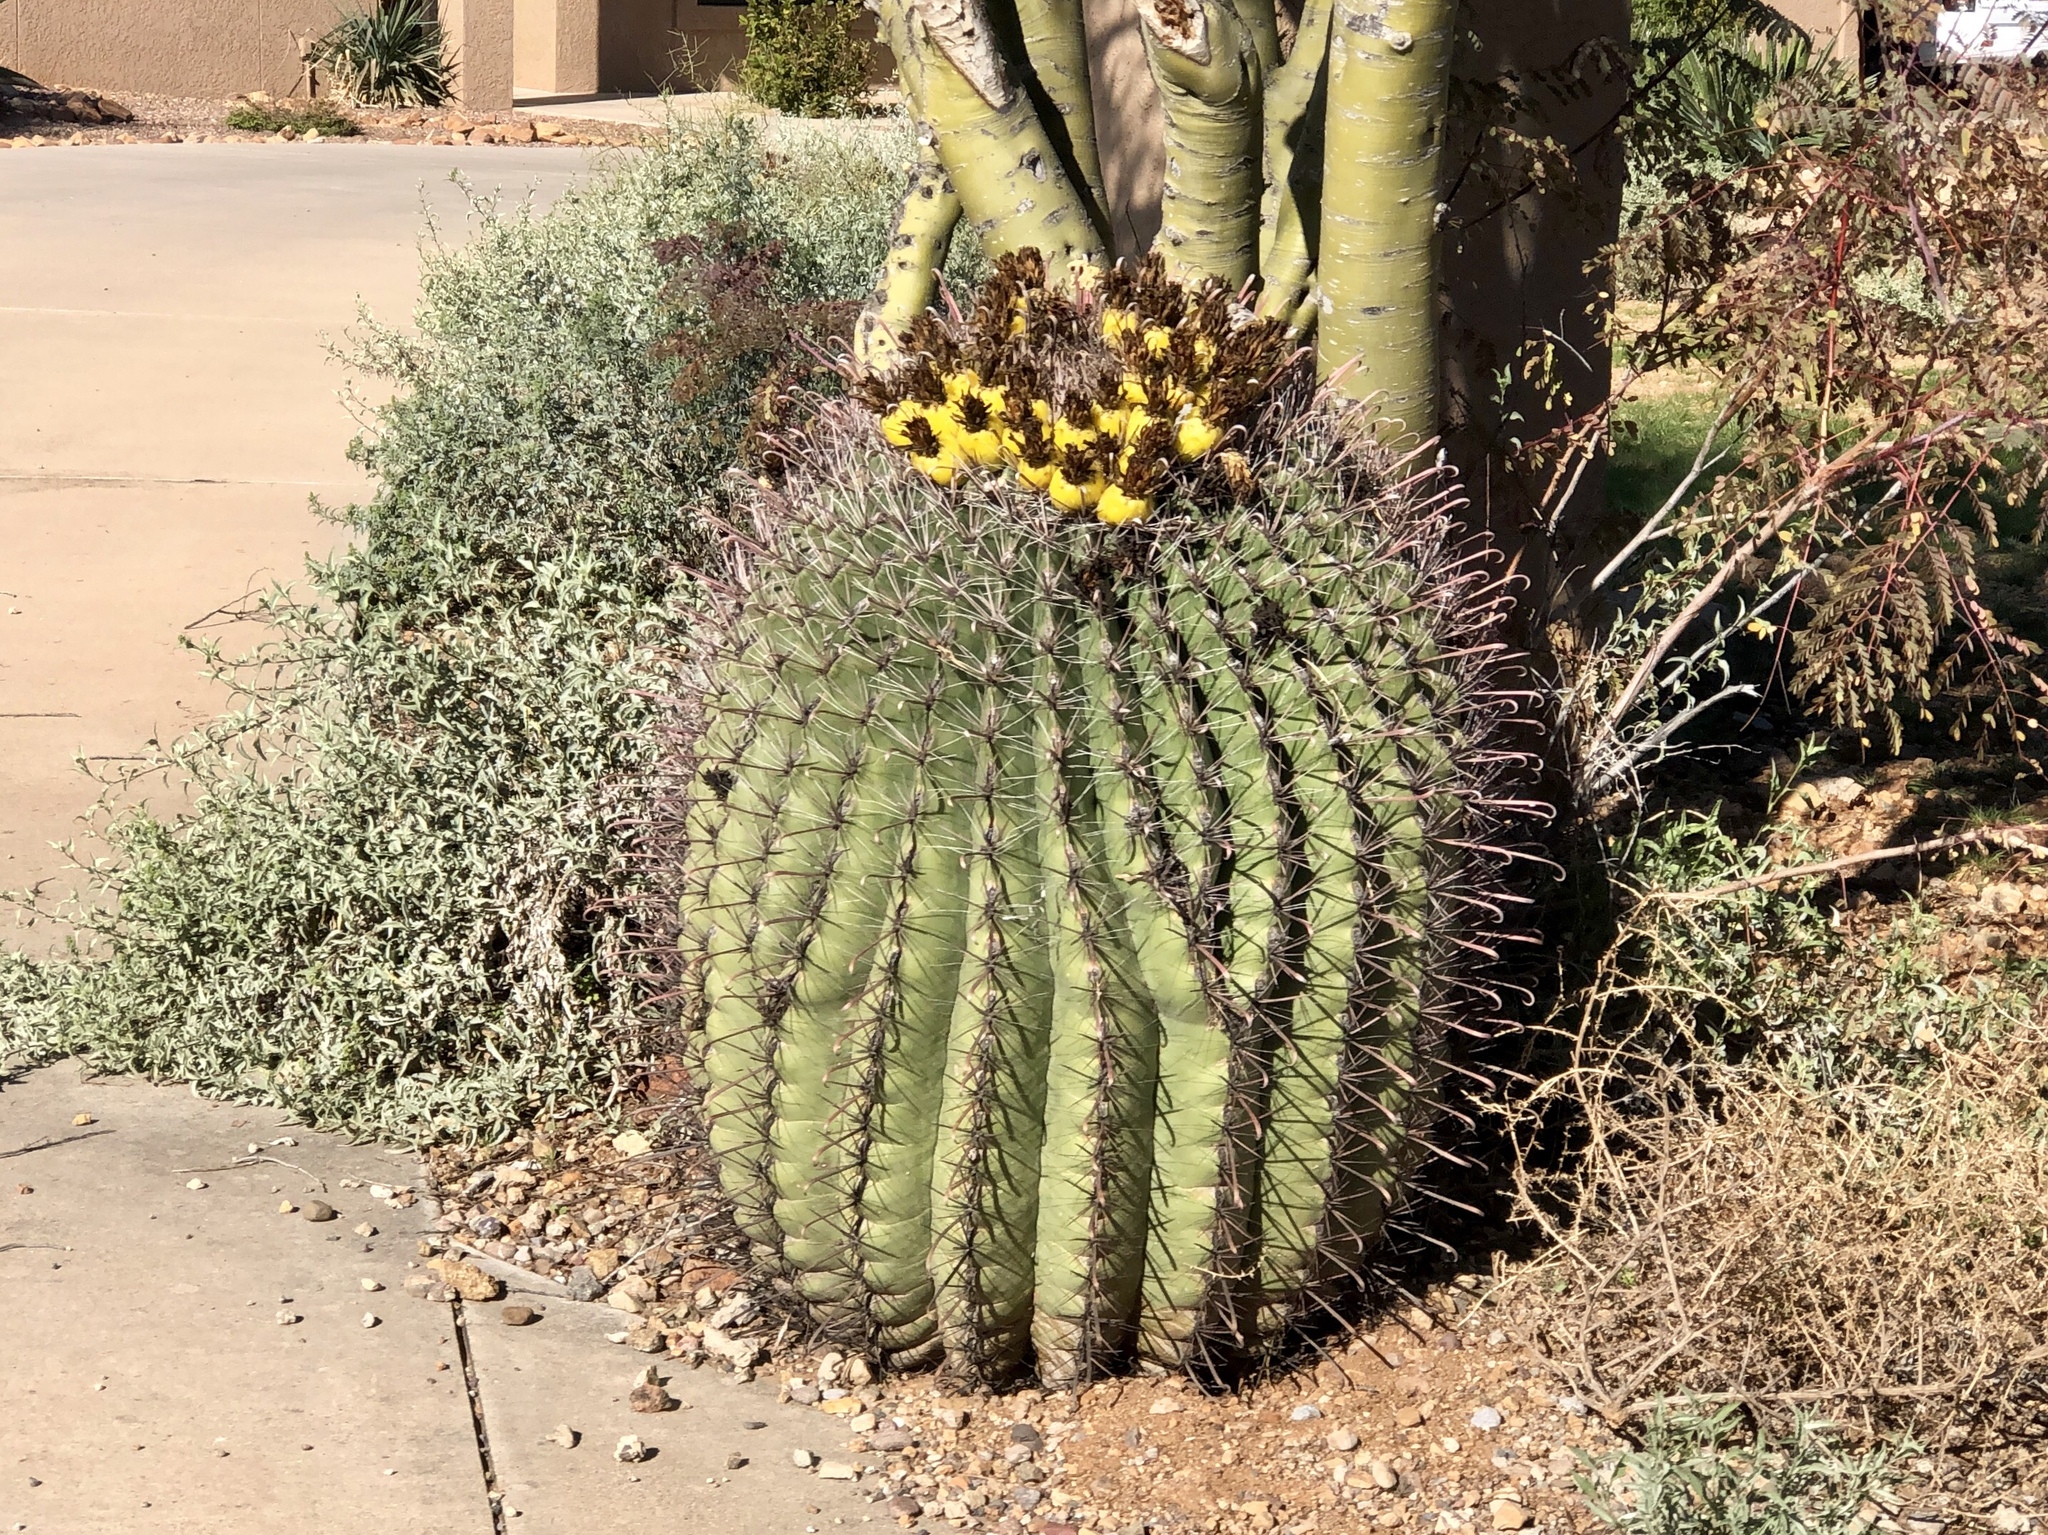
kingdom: Plantae
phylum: Tracheophyta
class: Magnoliopsida
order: Caryophyllales
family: Cactaceae
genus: Ferocactus
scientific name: Ferocactus wislizeni
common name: Candy barrel cactus
